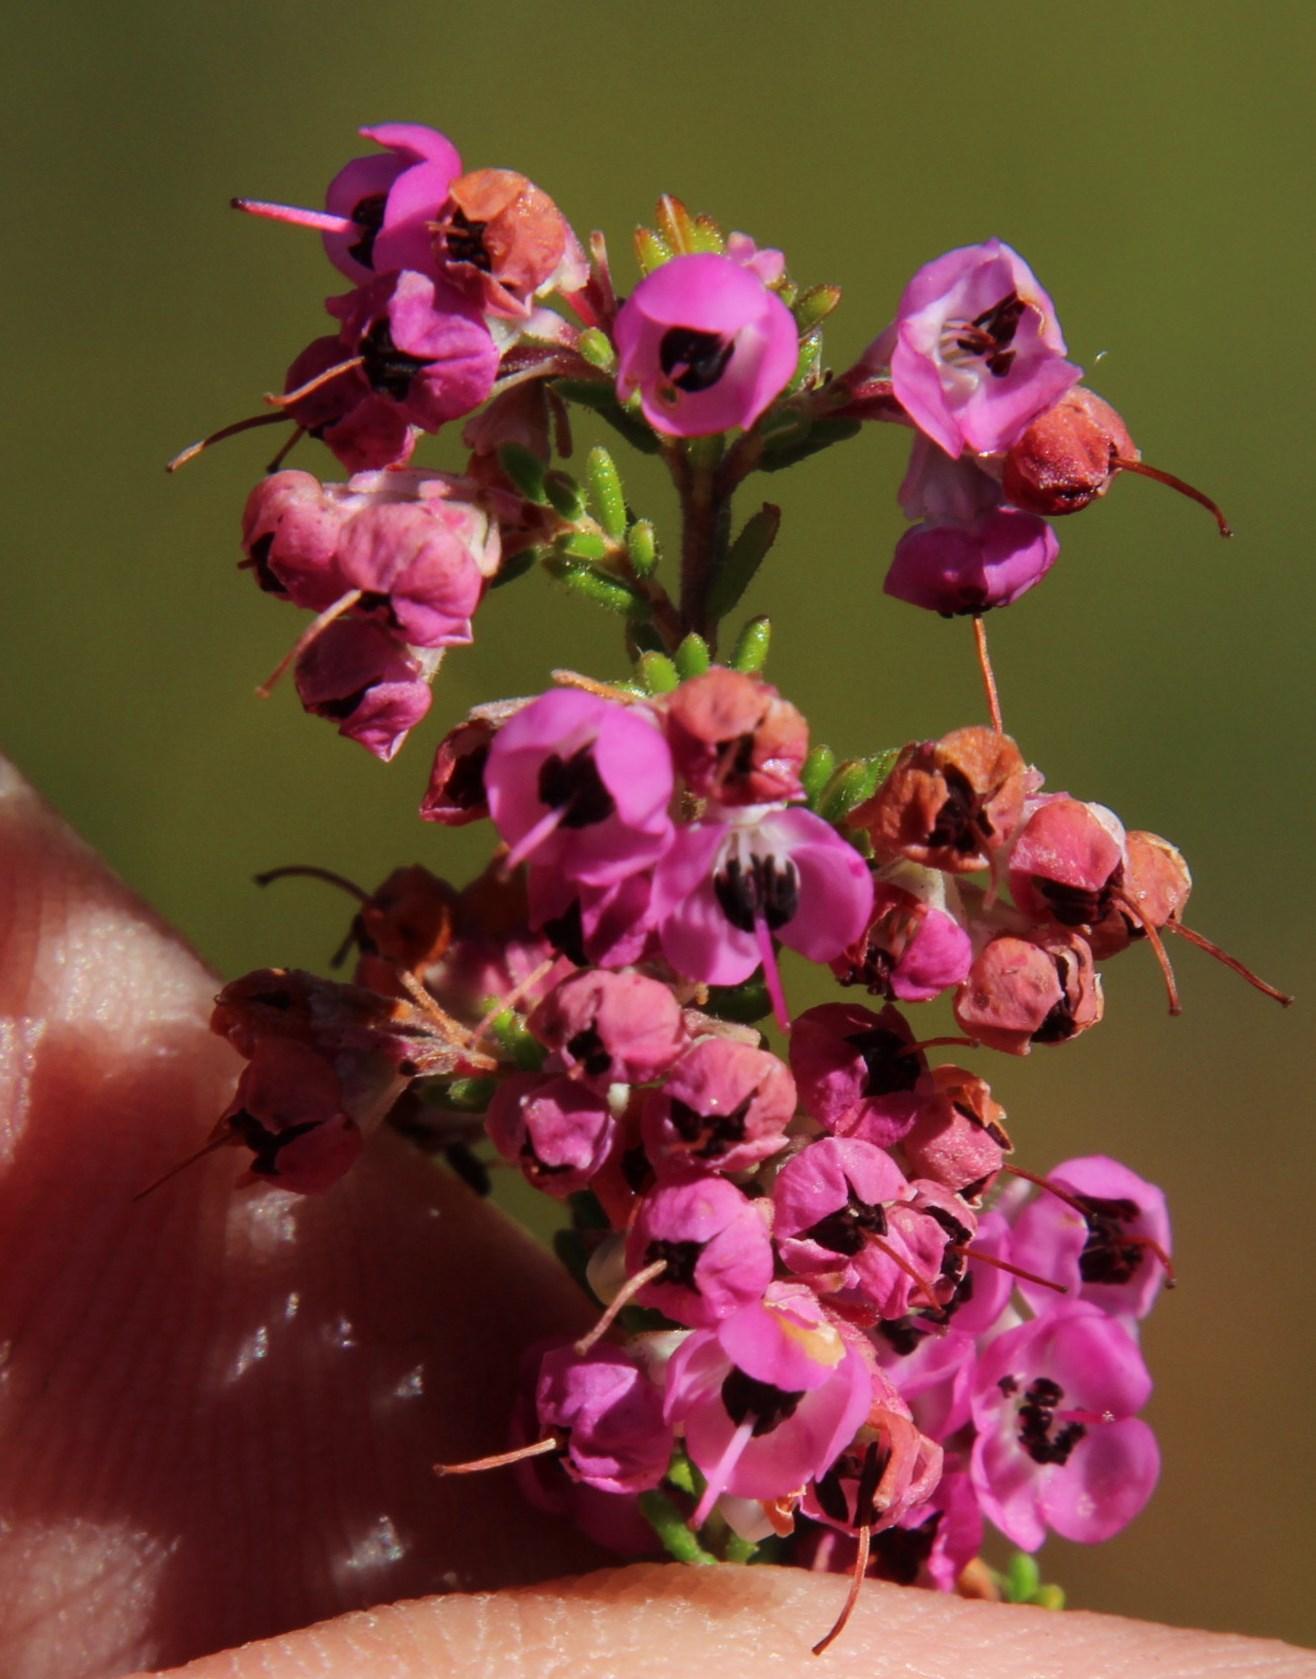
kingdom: Plantae
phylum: Tracheophyta
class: Magnoliopsida
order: Ericales
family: Ericaceae
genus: Erica
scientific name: Erica melanthera
